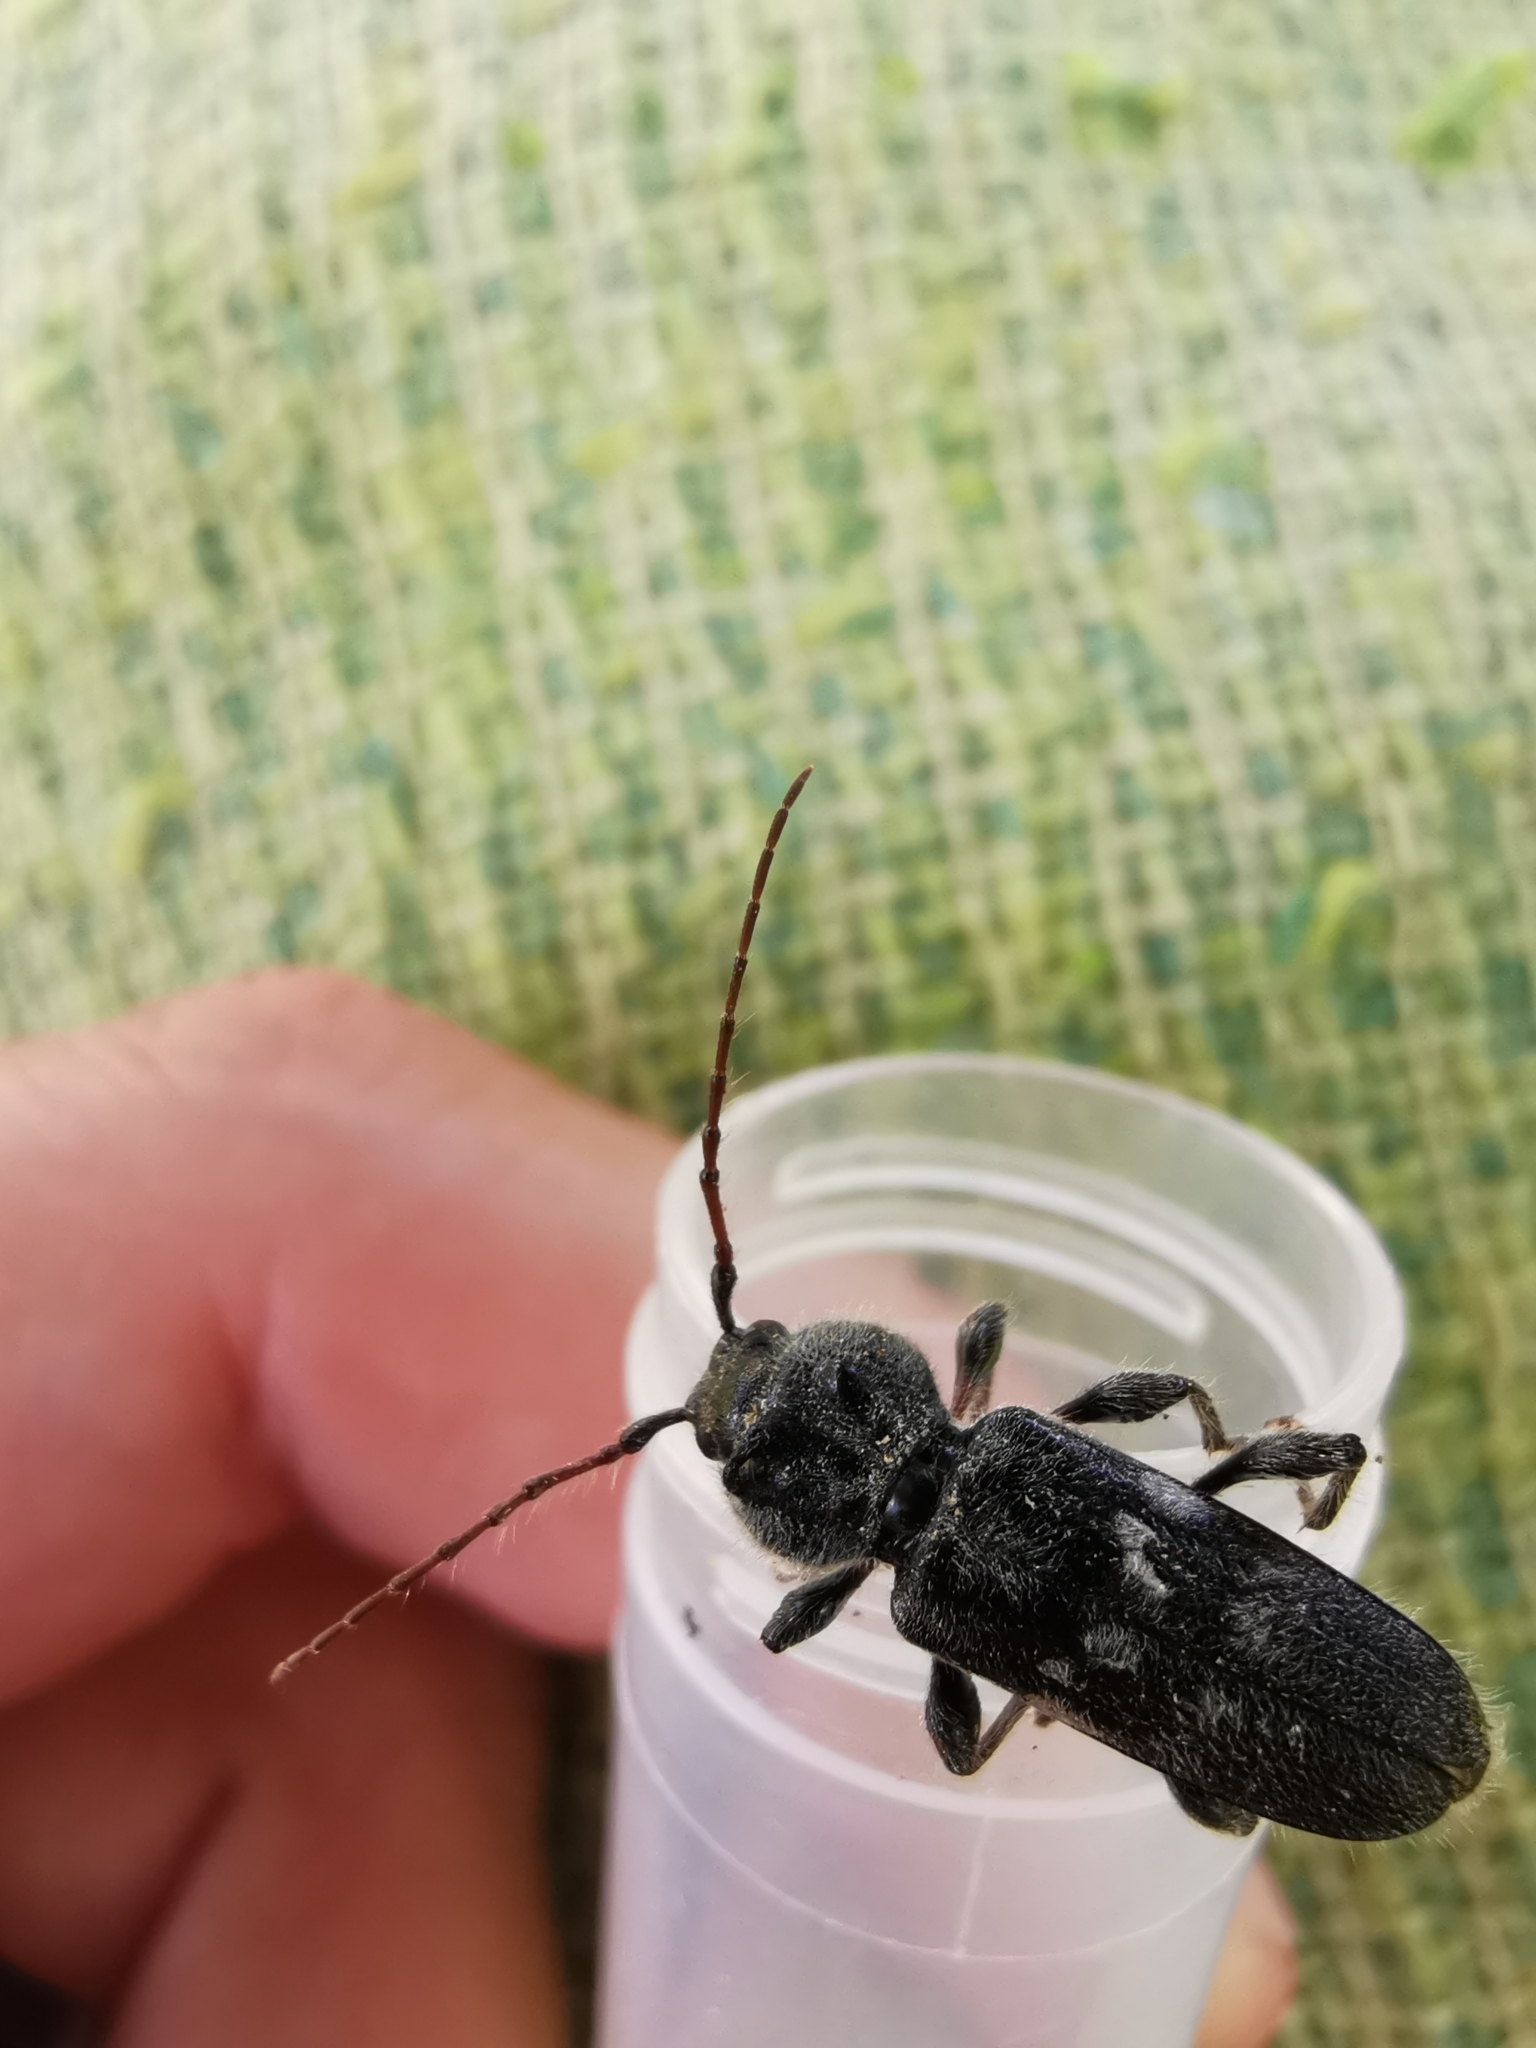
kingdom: Animalia
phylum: Arthropoda
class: Insecta
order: Coleoptera
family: Cerambycidae
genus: Hylotrupes
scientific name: Hylotrupes bajulus
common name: Old house borer
